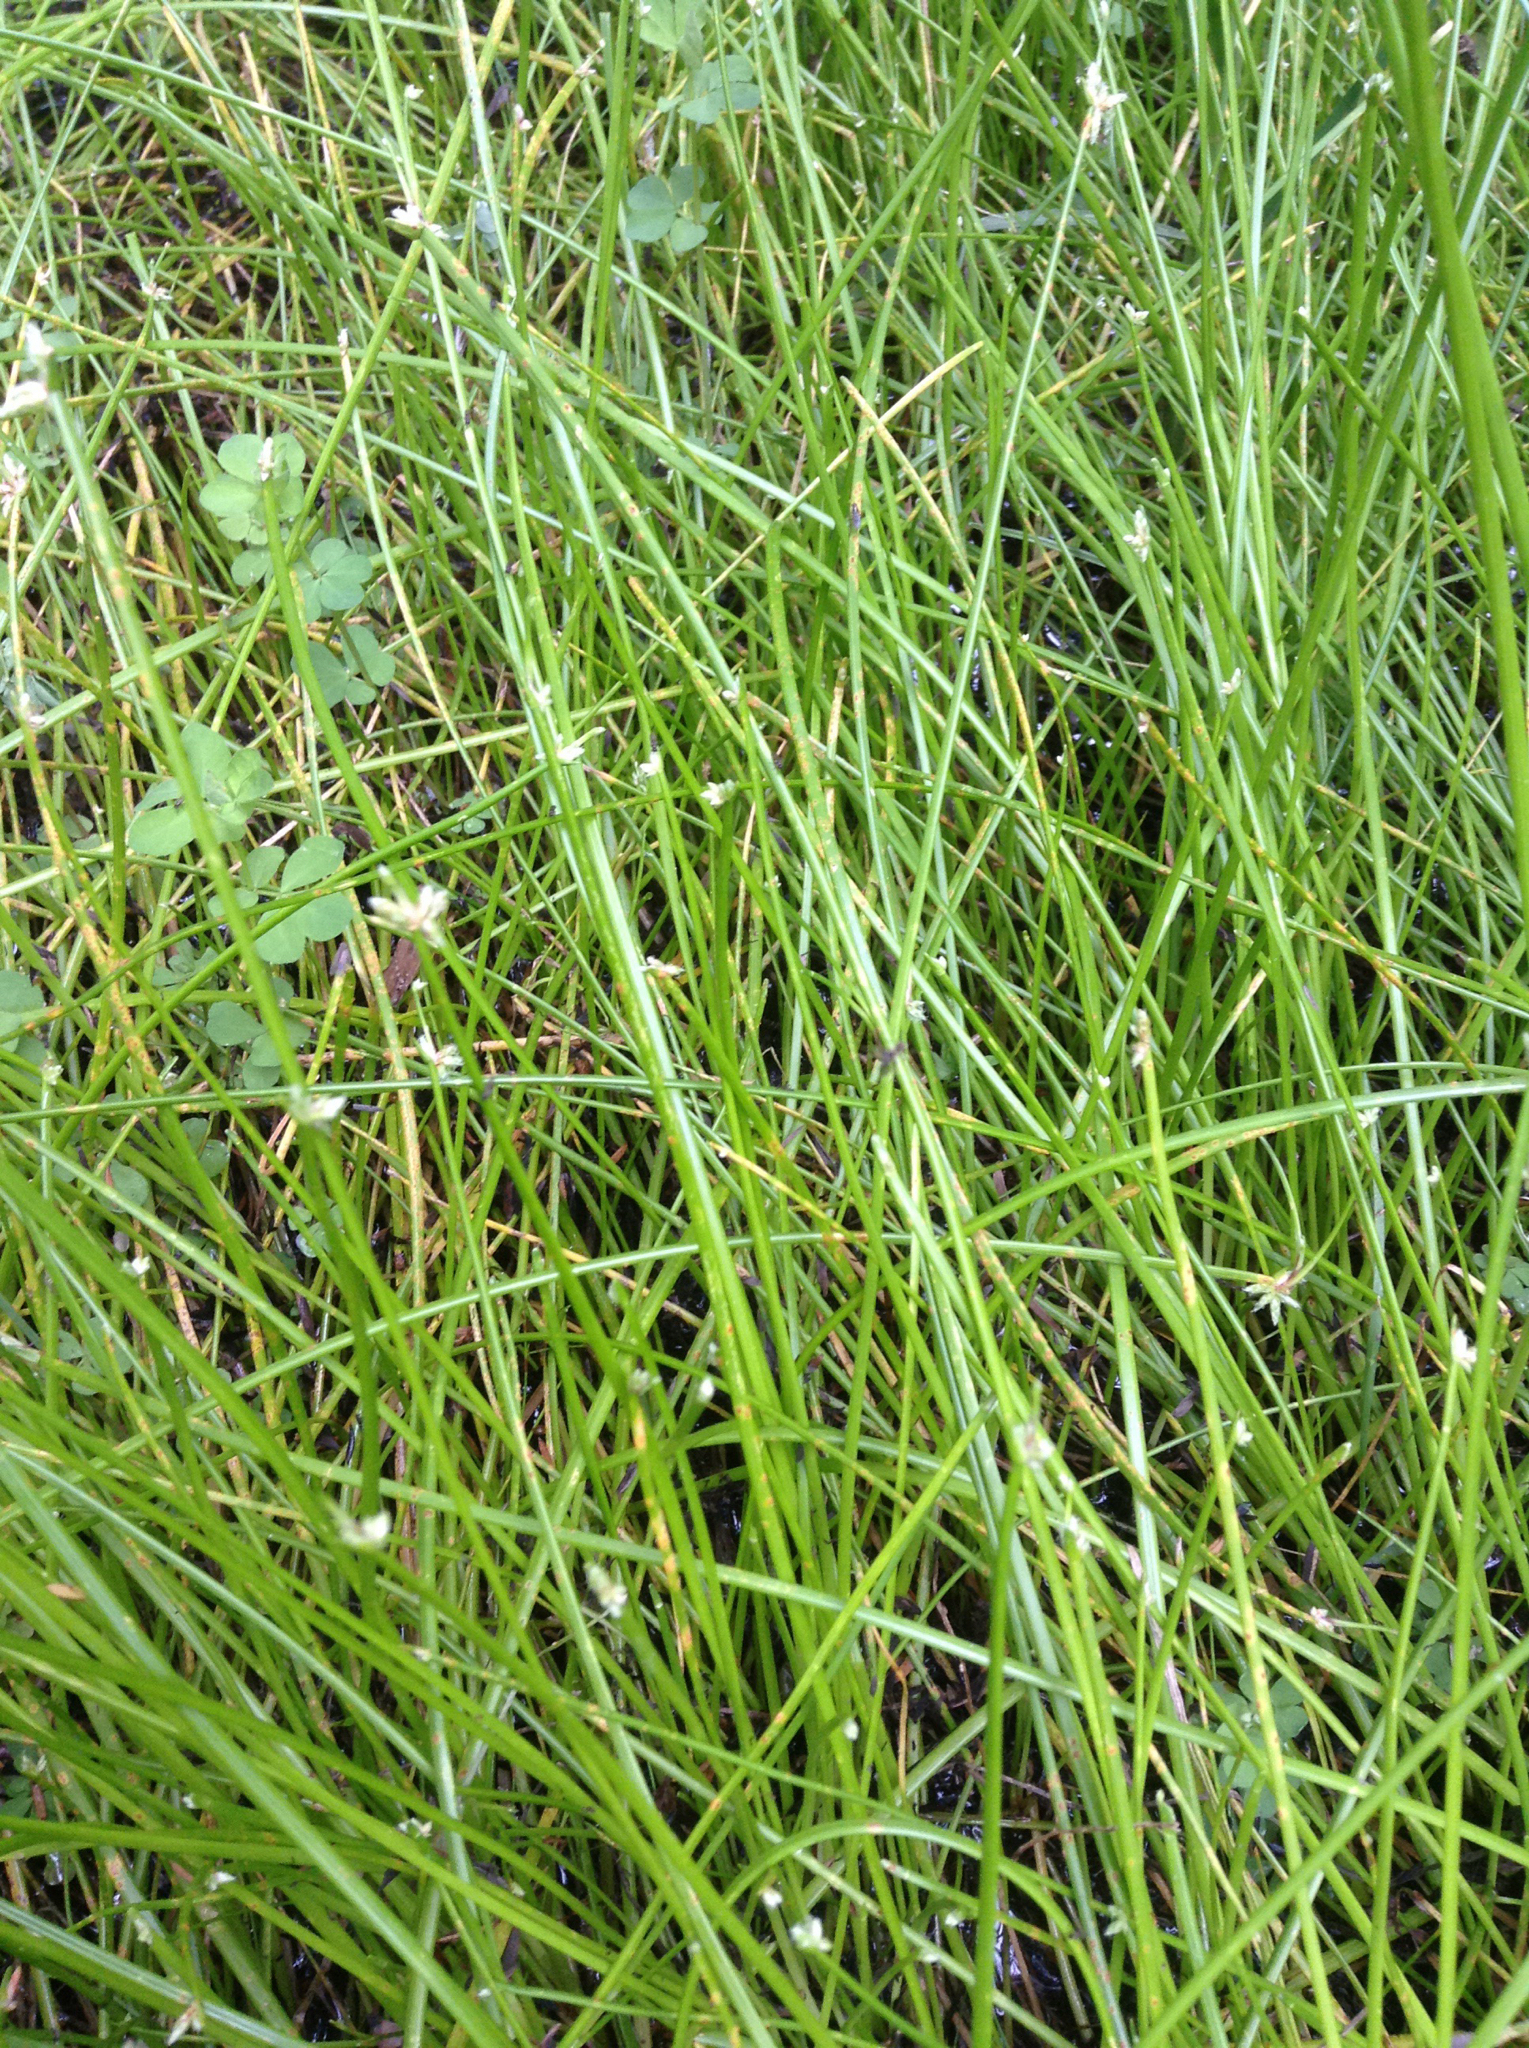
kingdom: Plantae
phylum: Tracheophyta
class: Liliopsida
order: Poales
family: Cyperaceae
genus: Isolepis
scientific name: Isolepis prolifera
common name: Proliferating bulrush
